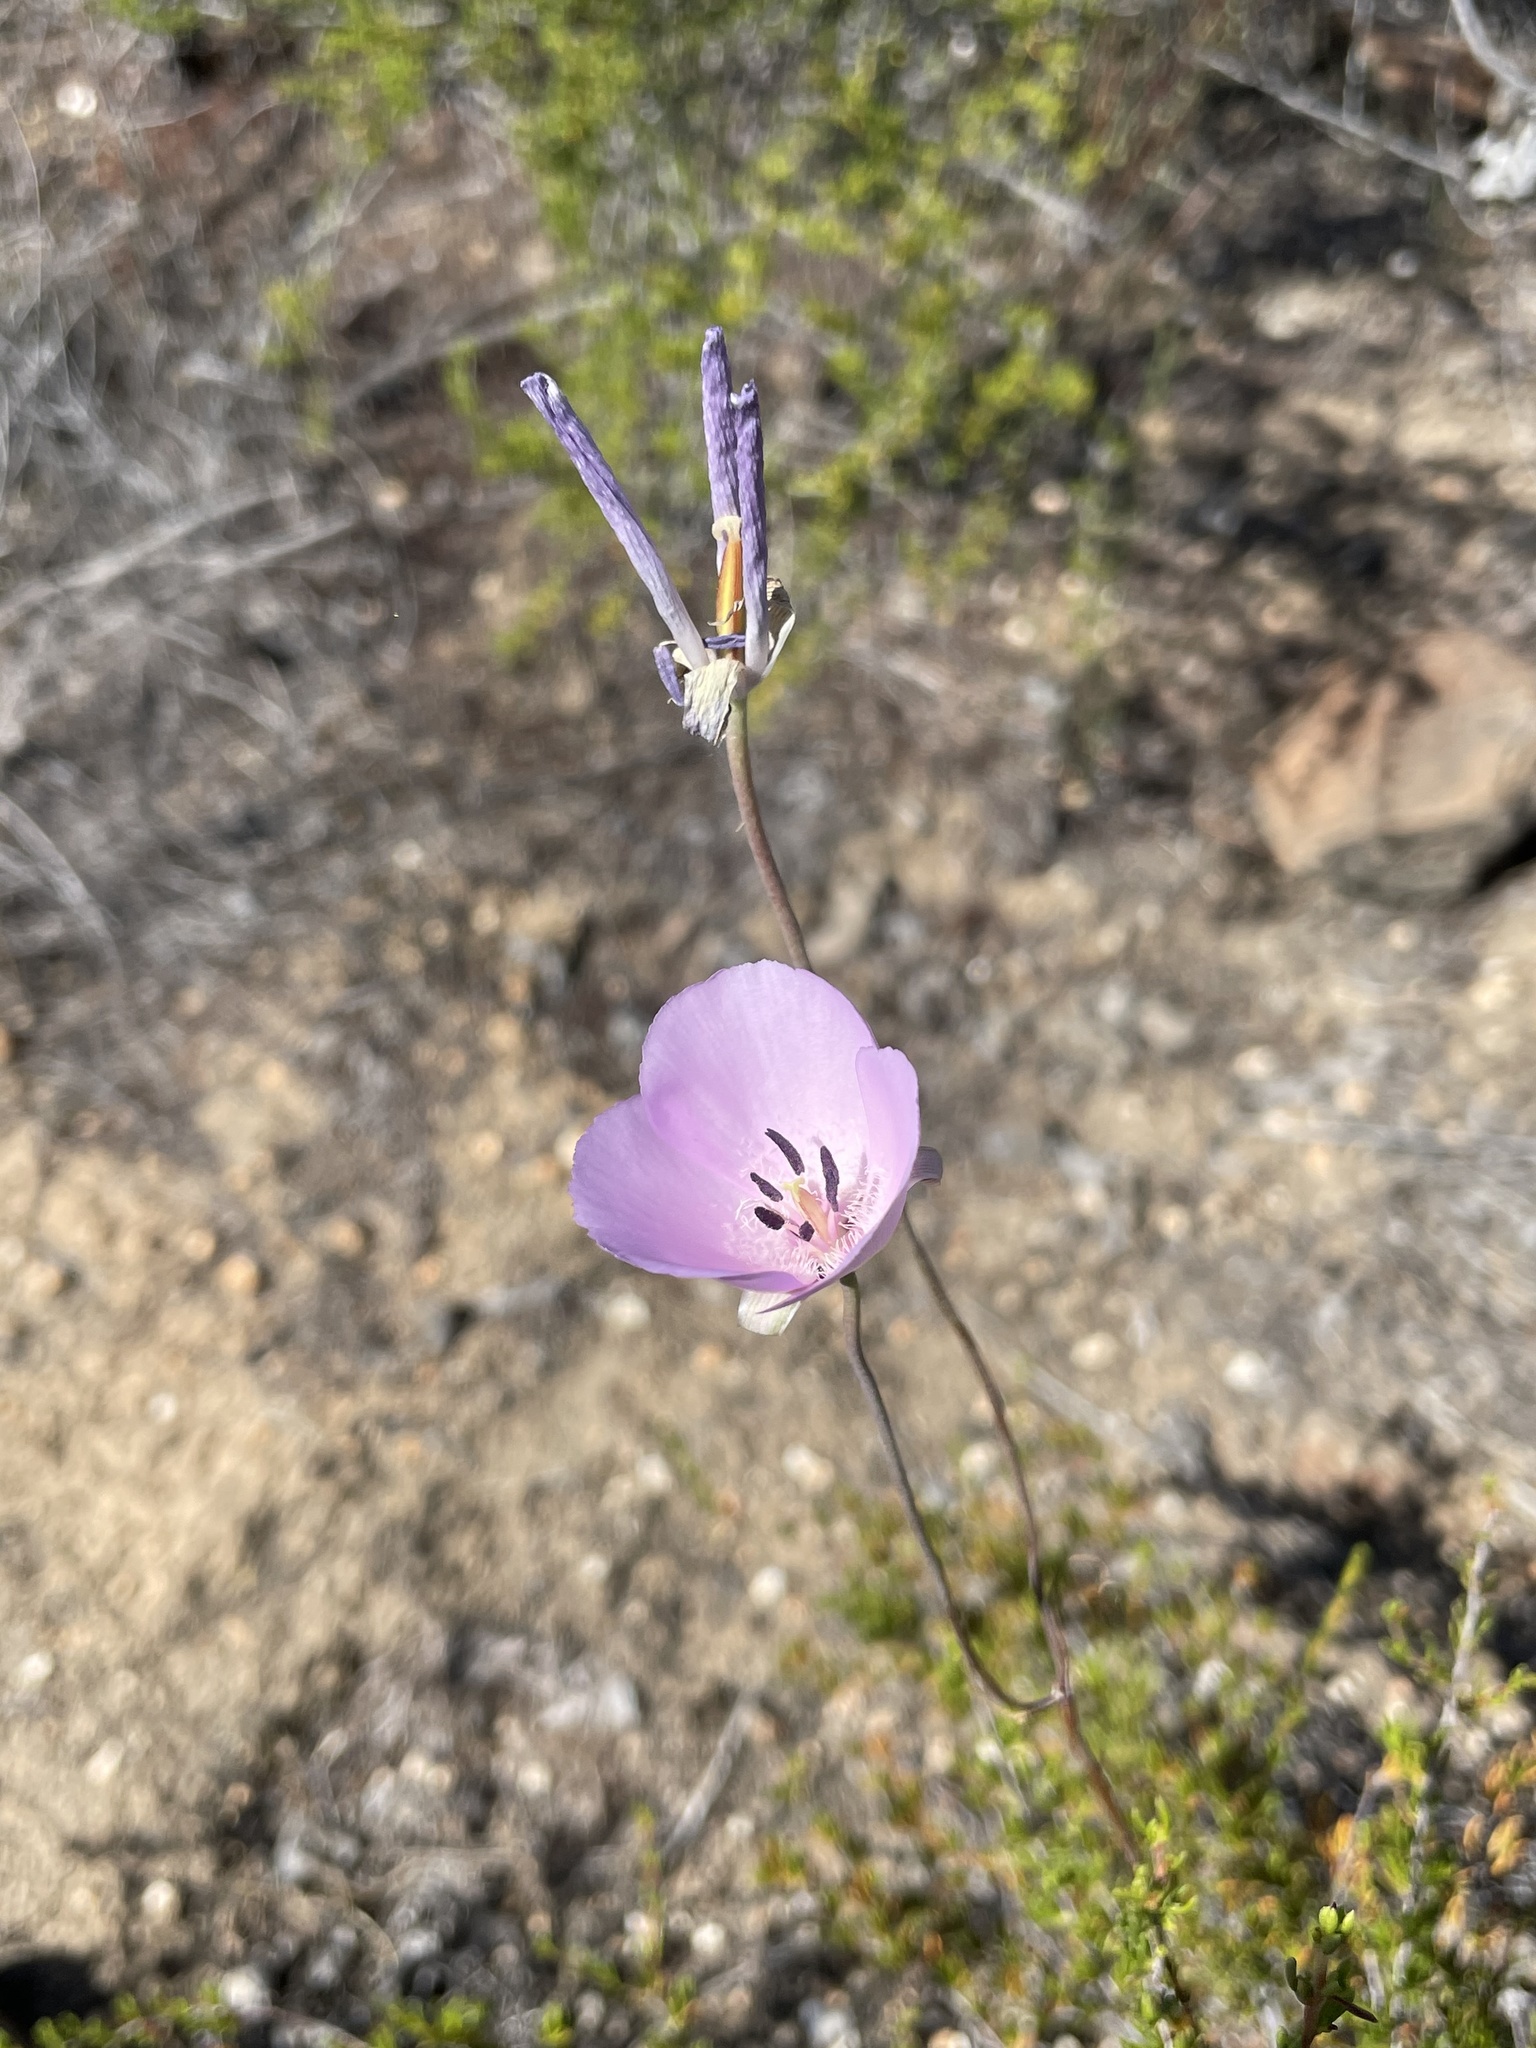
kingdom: Plantae
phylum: Tracheophyta
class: Liliopsida
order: Liliales
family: Liliaceae
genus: Calochortus
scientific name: Calochortus splendens
